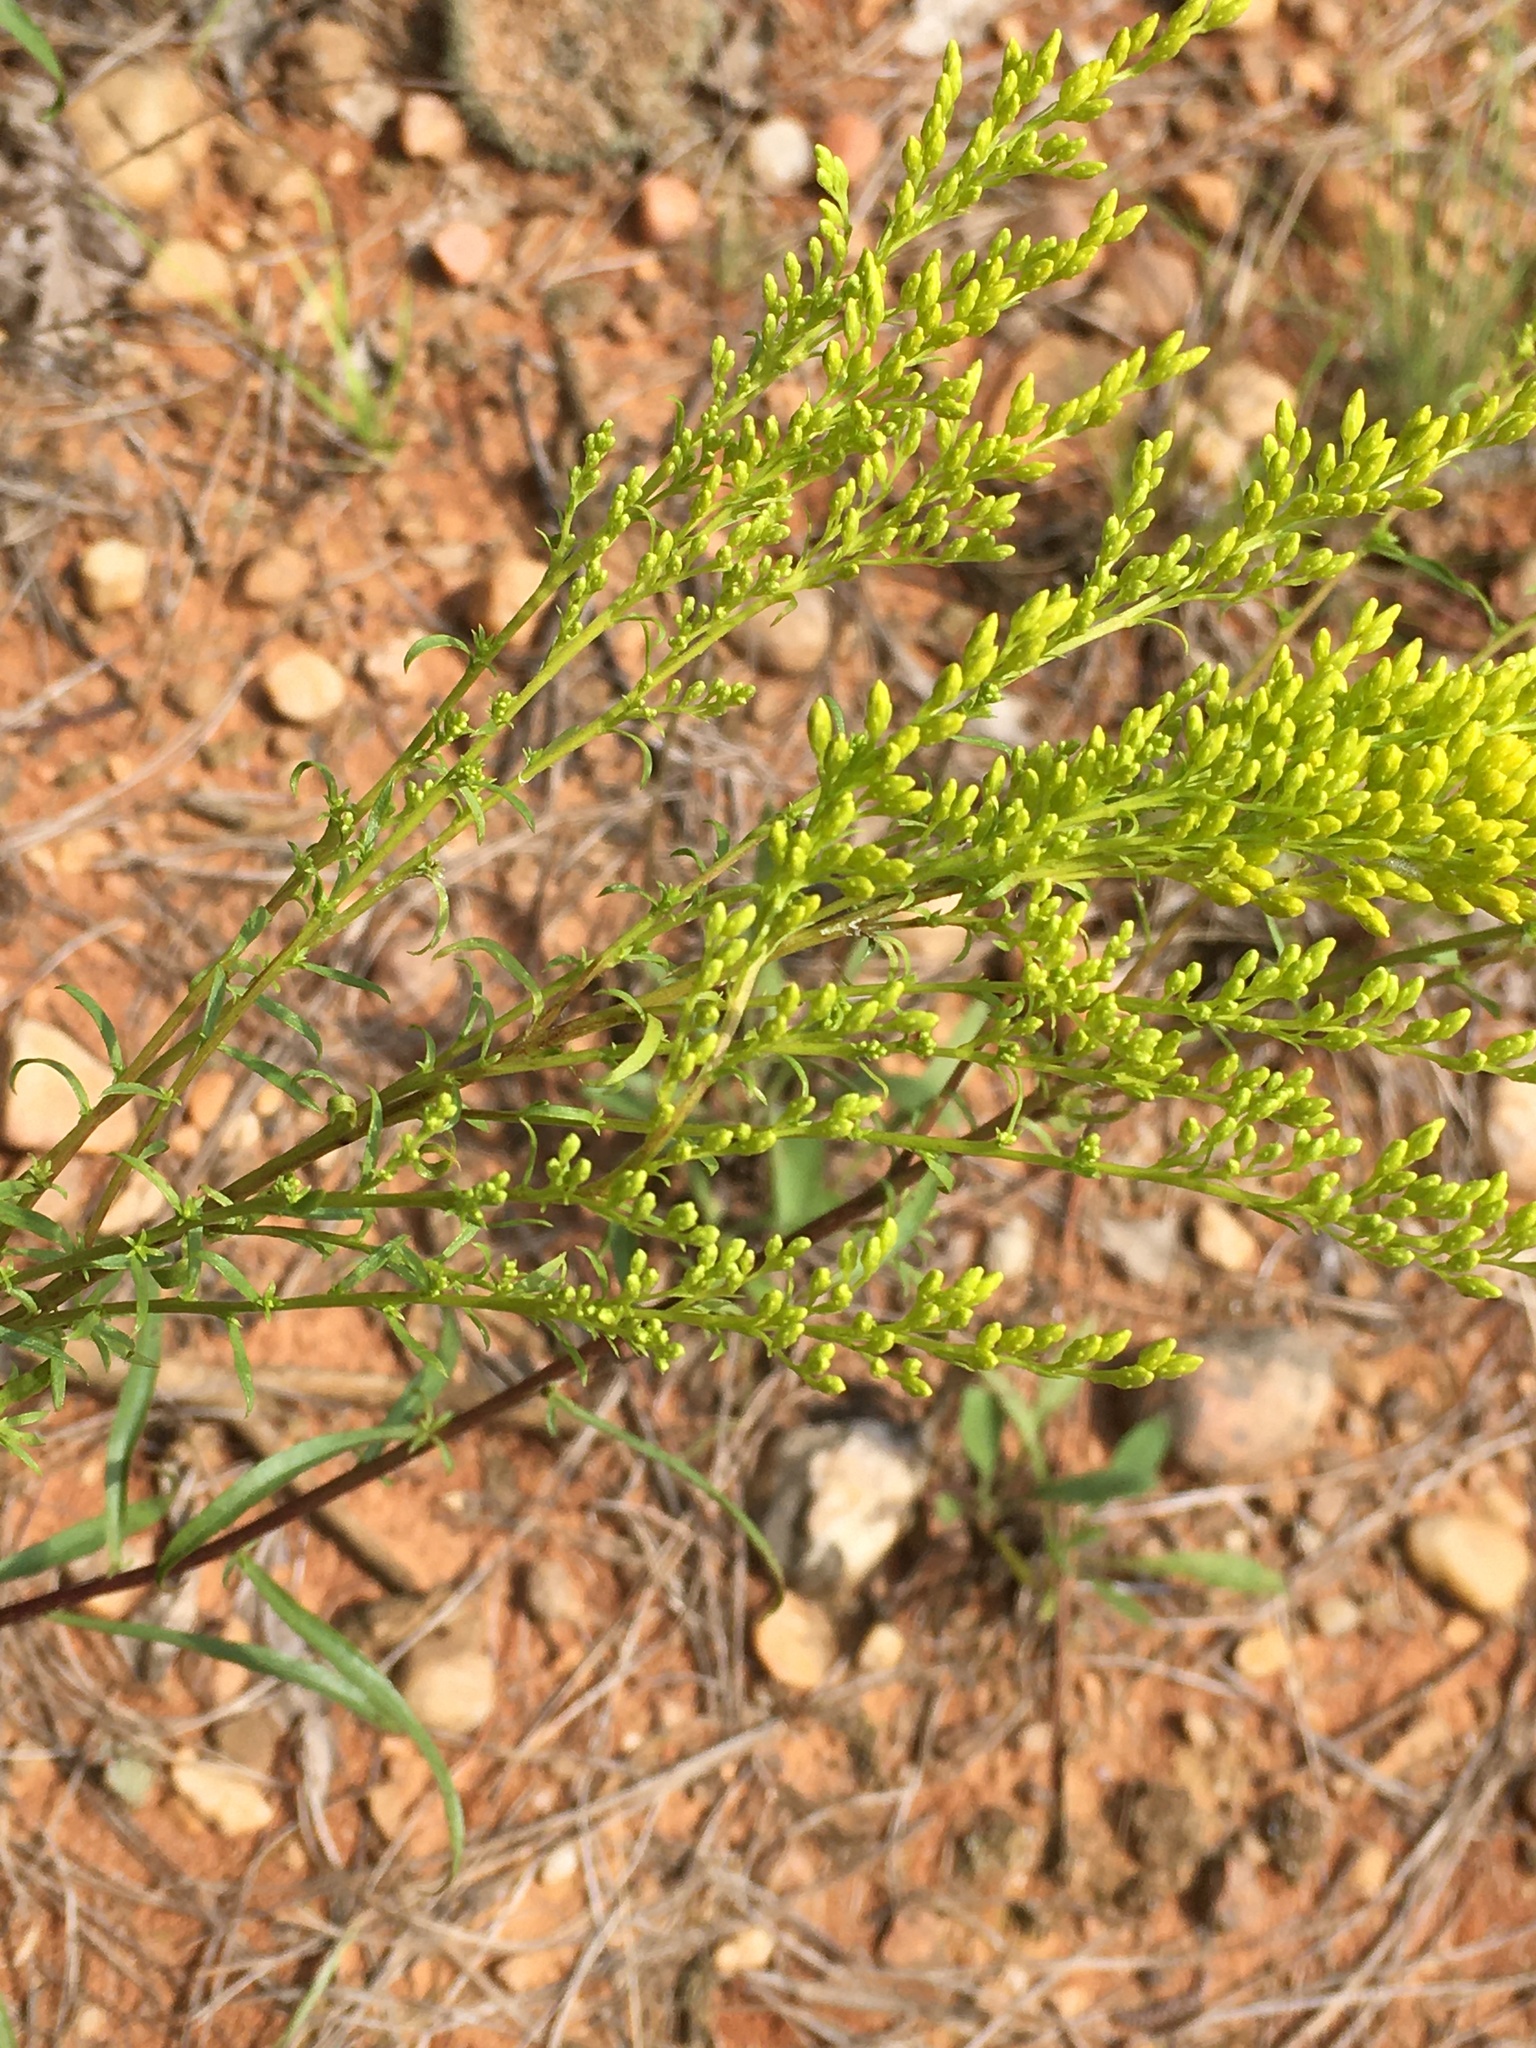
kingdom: Plantae
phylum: Tracheophyta
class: Magnoliopsida
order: Asterales
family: Asteraceae
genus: Solidago
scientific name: Solidago pinetorum
